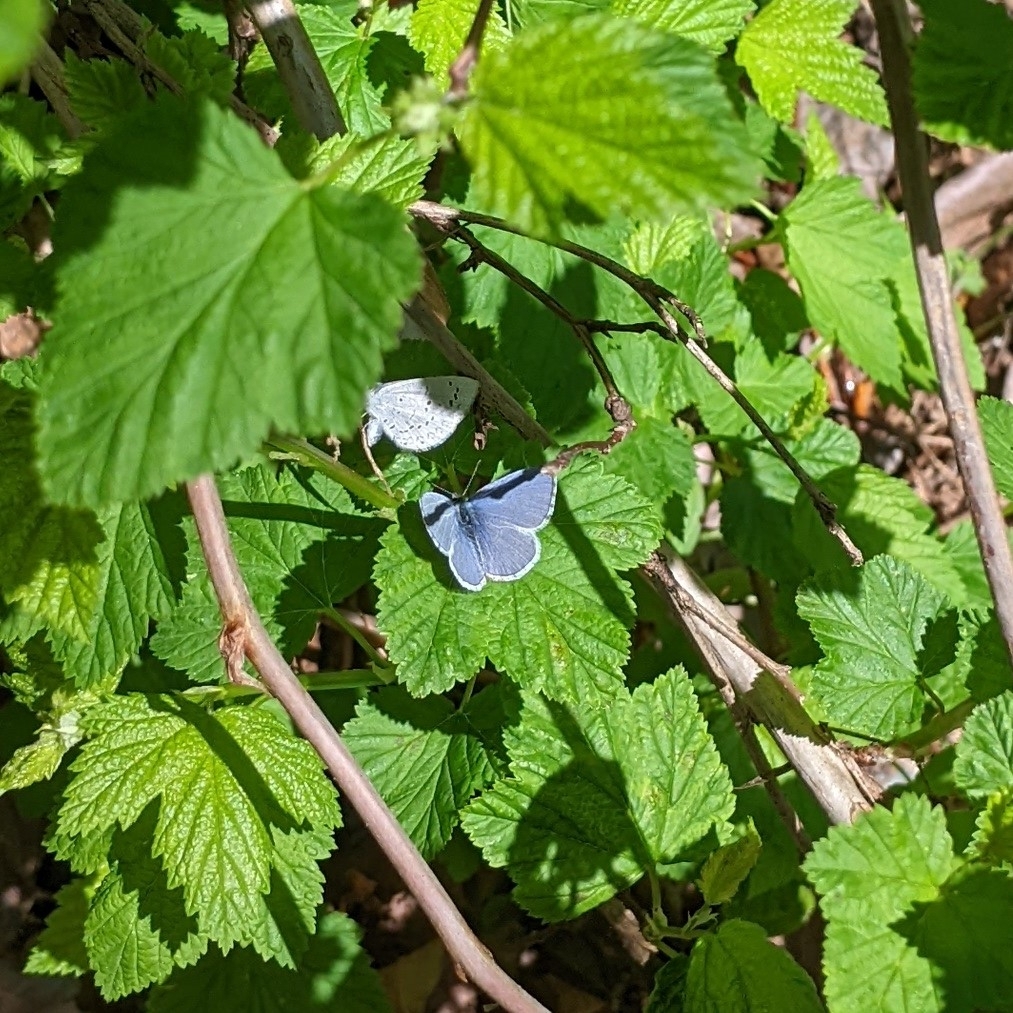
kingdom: Animalia
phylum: Arthropoda
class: Insecta
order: Lepidoptera
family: Lycaenidae
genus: Celastrina
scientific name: Celastrina ladon
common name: Spring azure
